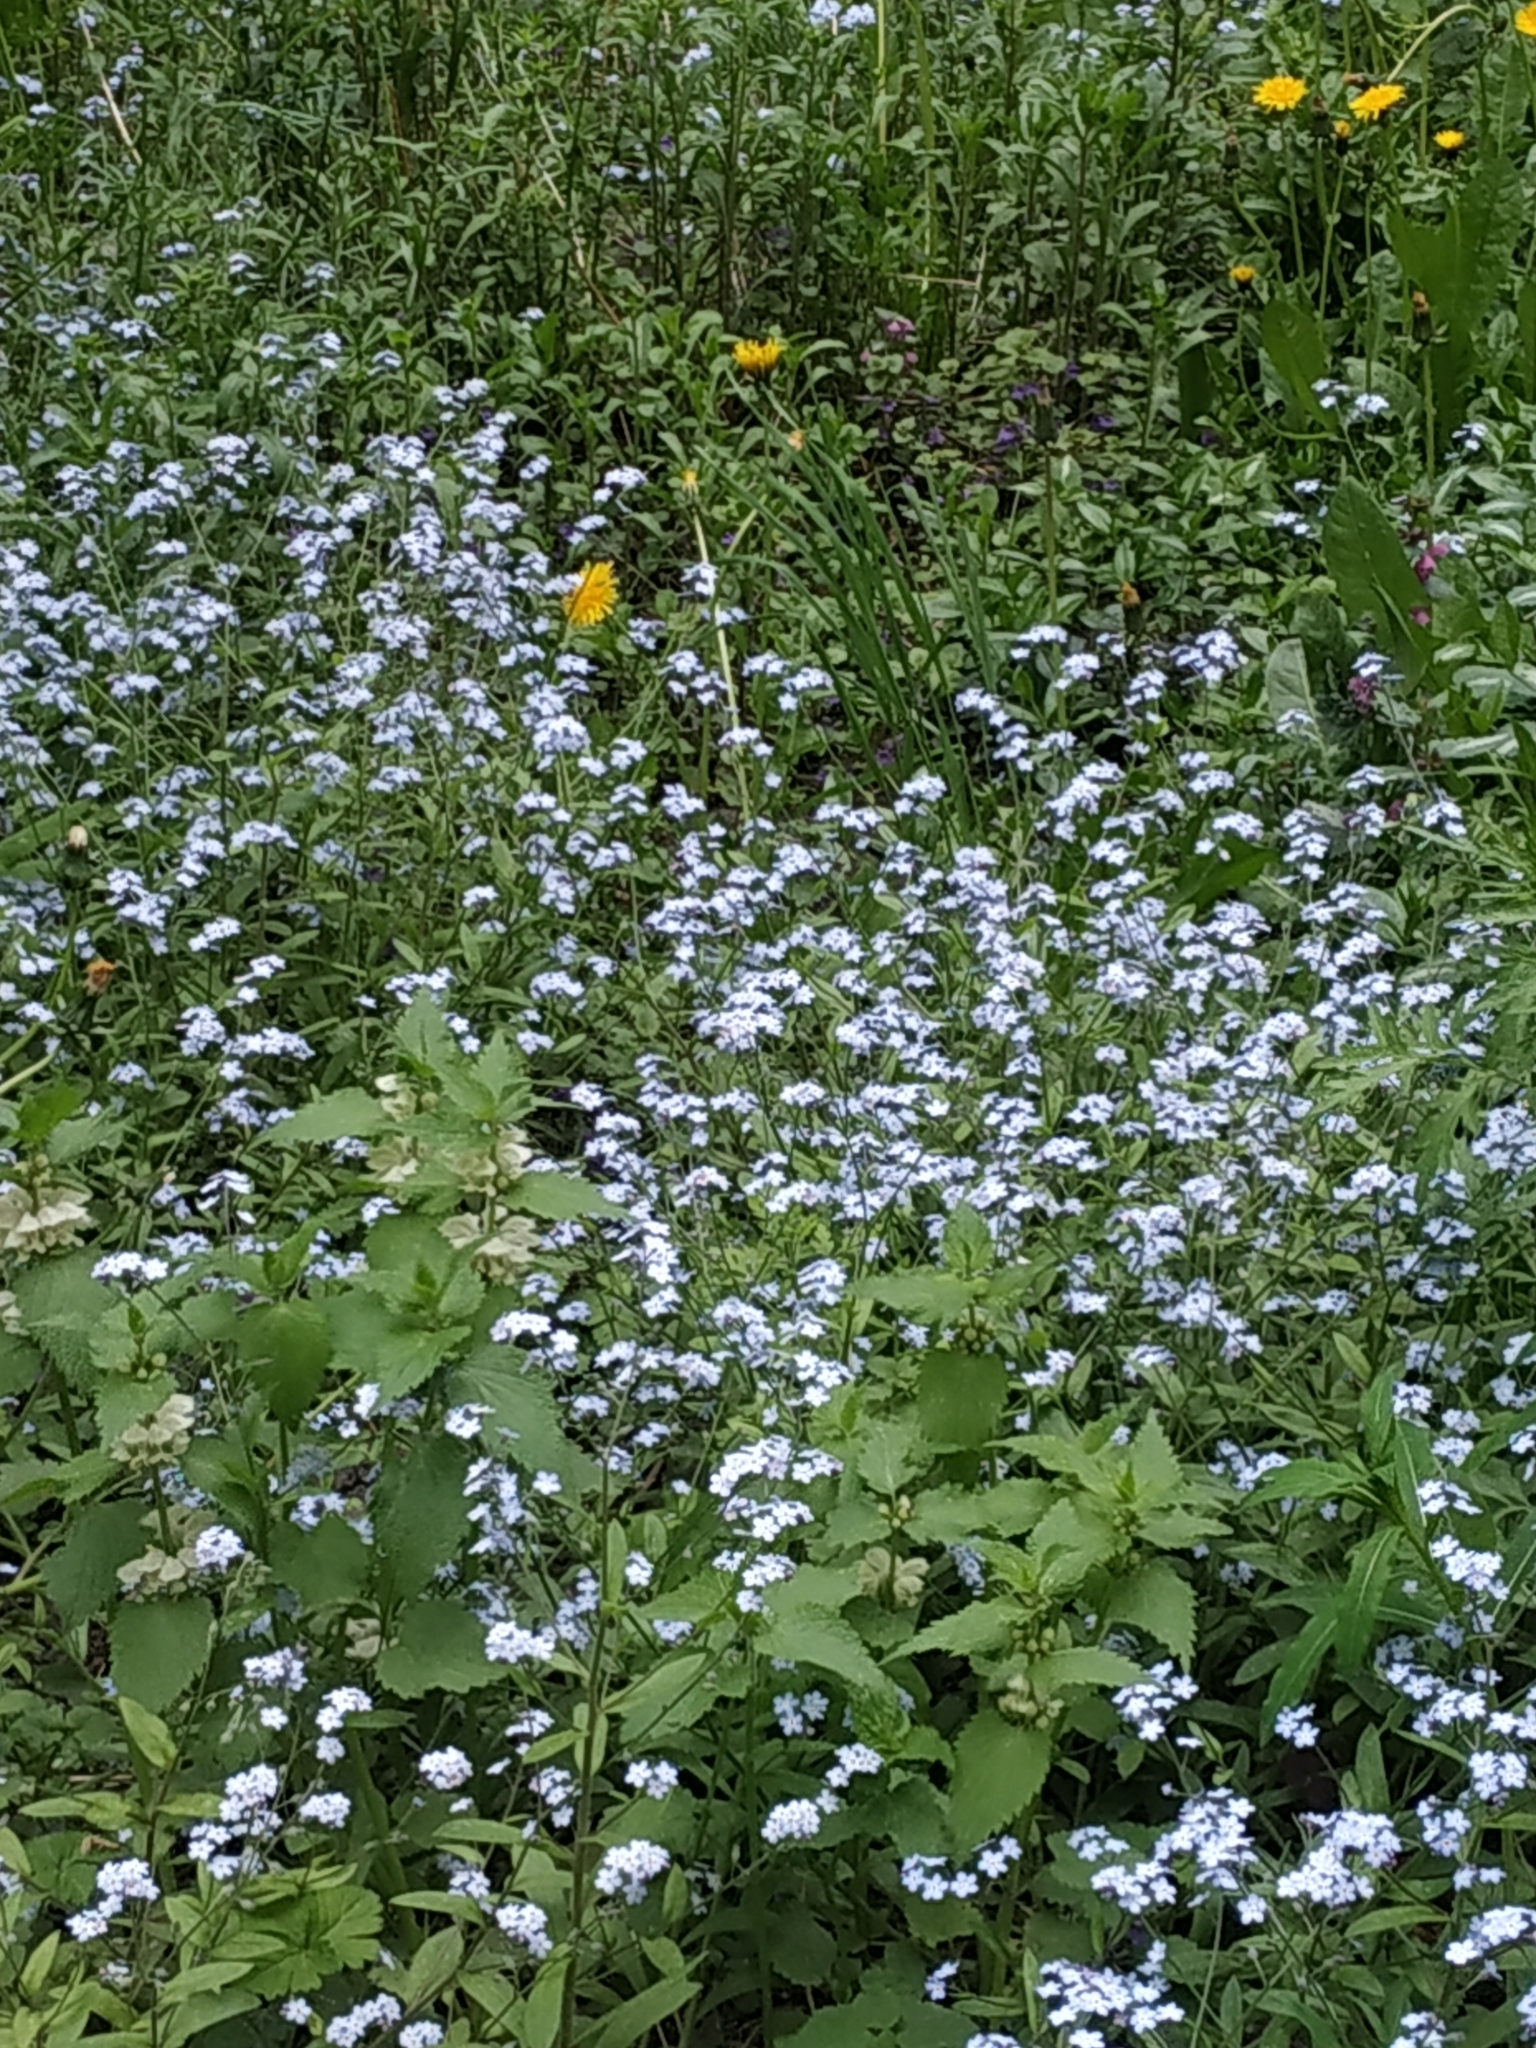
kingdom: Plantae
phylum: Tracheophyta
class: Magnoliopsida
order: Boraginales
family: Boraginaceae
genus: Myosotis
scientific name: Myosotis sylvatica
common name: Wood forget-me-not
